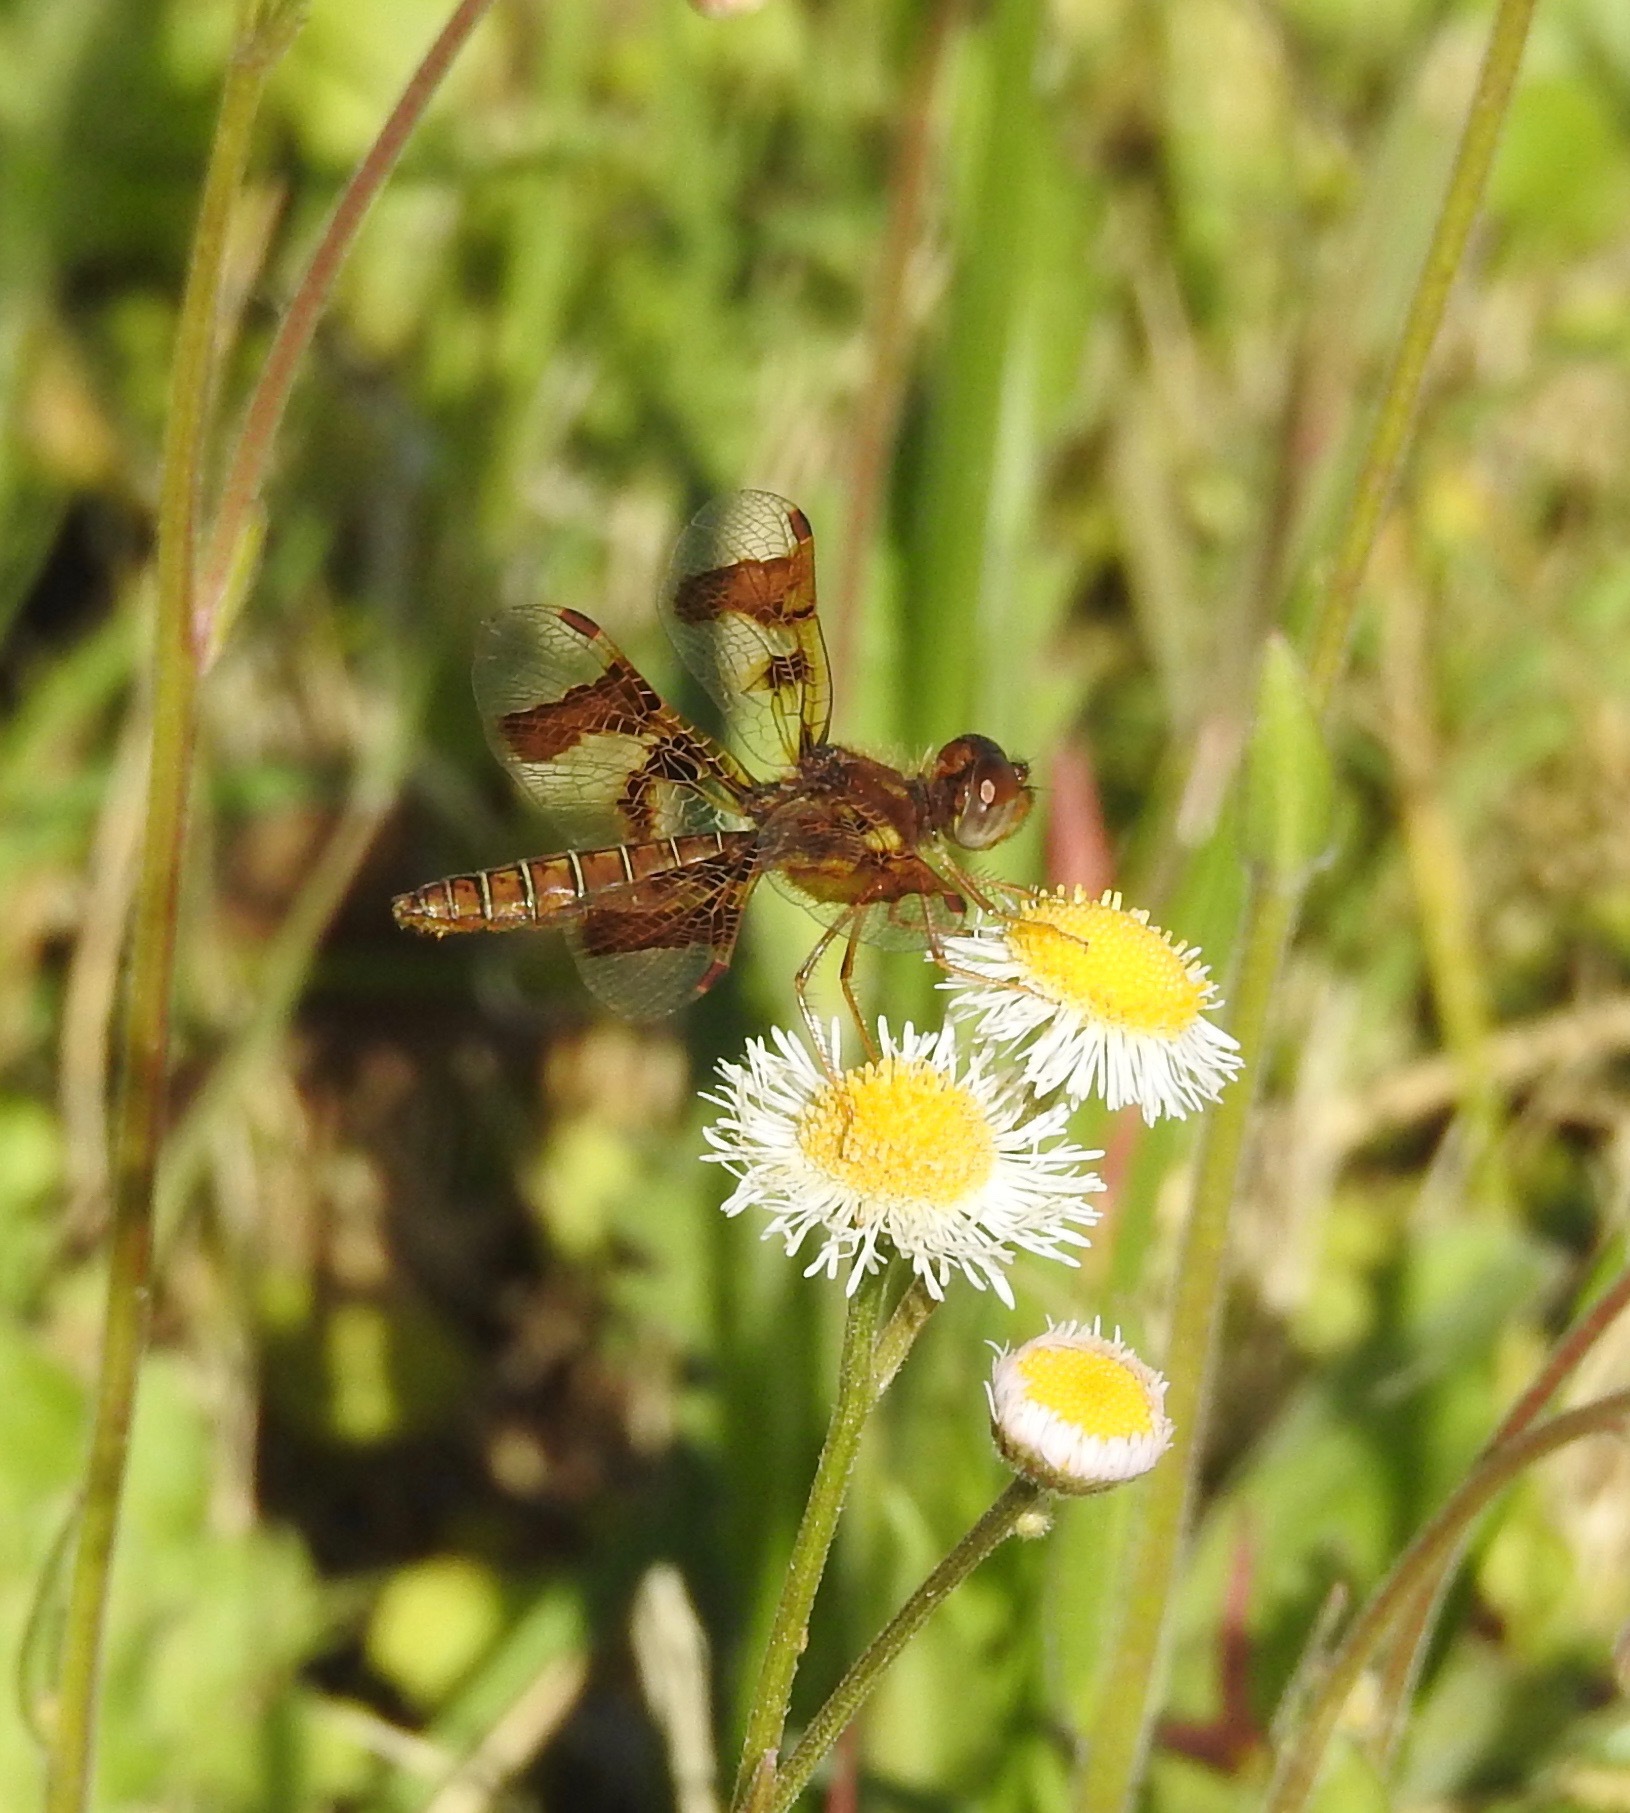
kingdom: Animalia
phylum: Arthropoda
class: Insecta
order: Odonata
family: Libellulidae
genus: Perithemis
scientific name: Perithemis tenera
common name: Eastern amberwing
